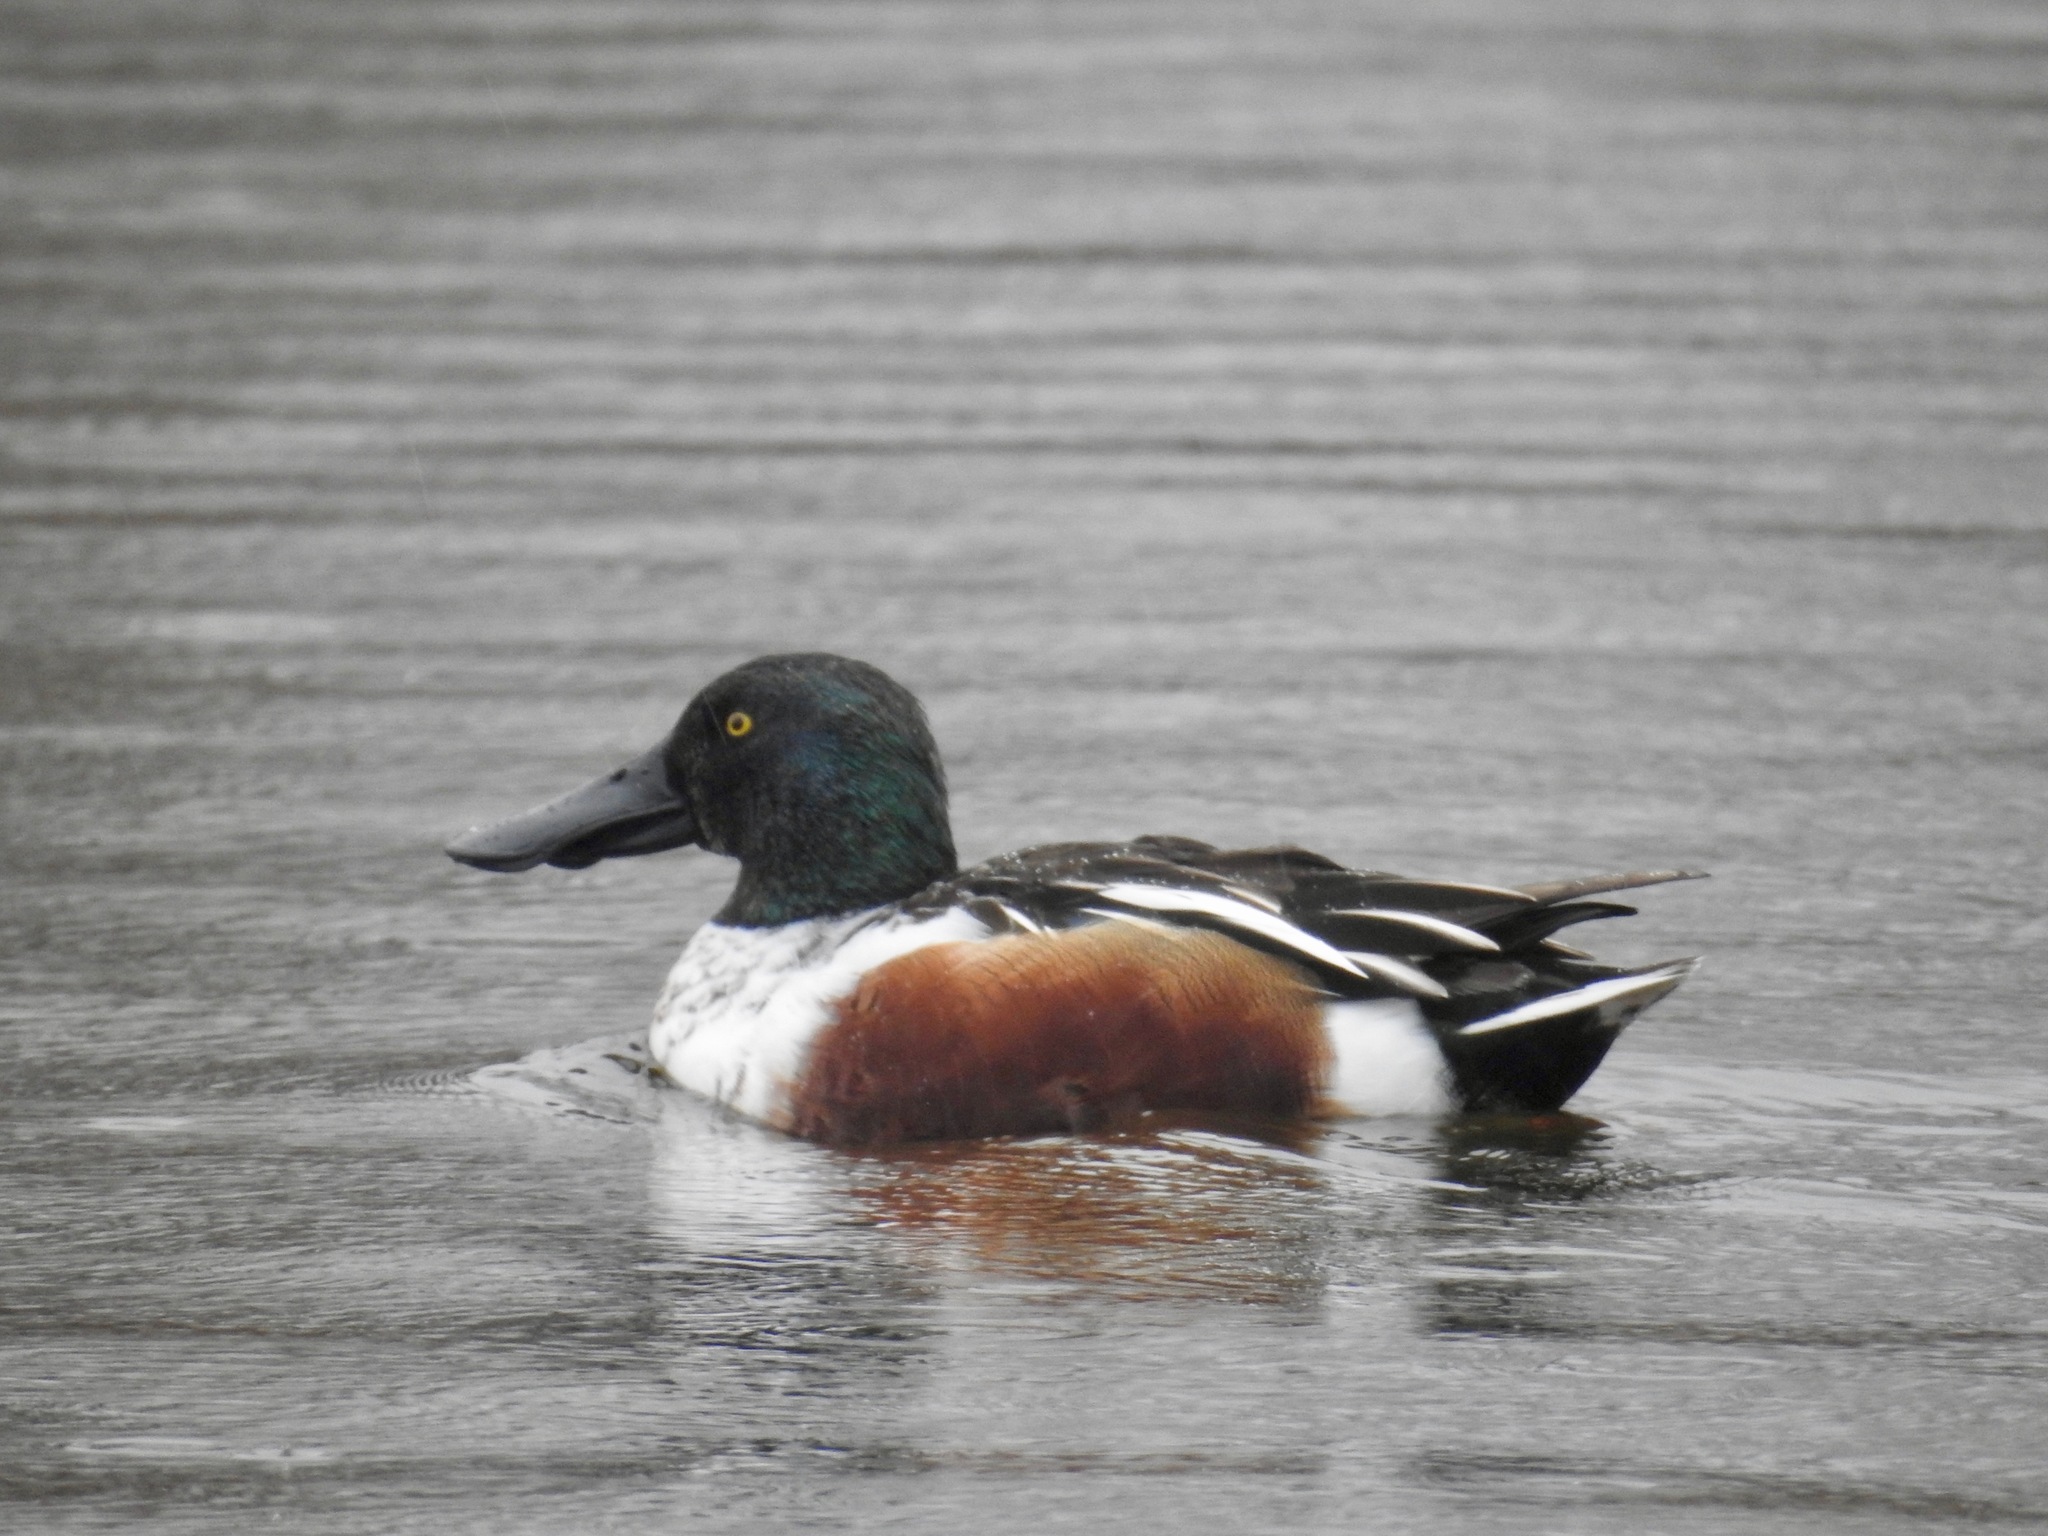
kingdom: Animalia
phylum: Chordata
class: Aves
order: Anseriformes
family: Anatidae
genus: Spatula
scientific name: Spatula clypeata
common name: Northern shoveler
